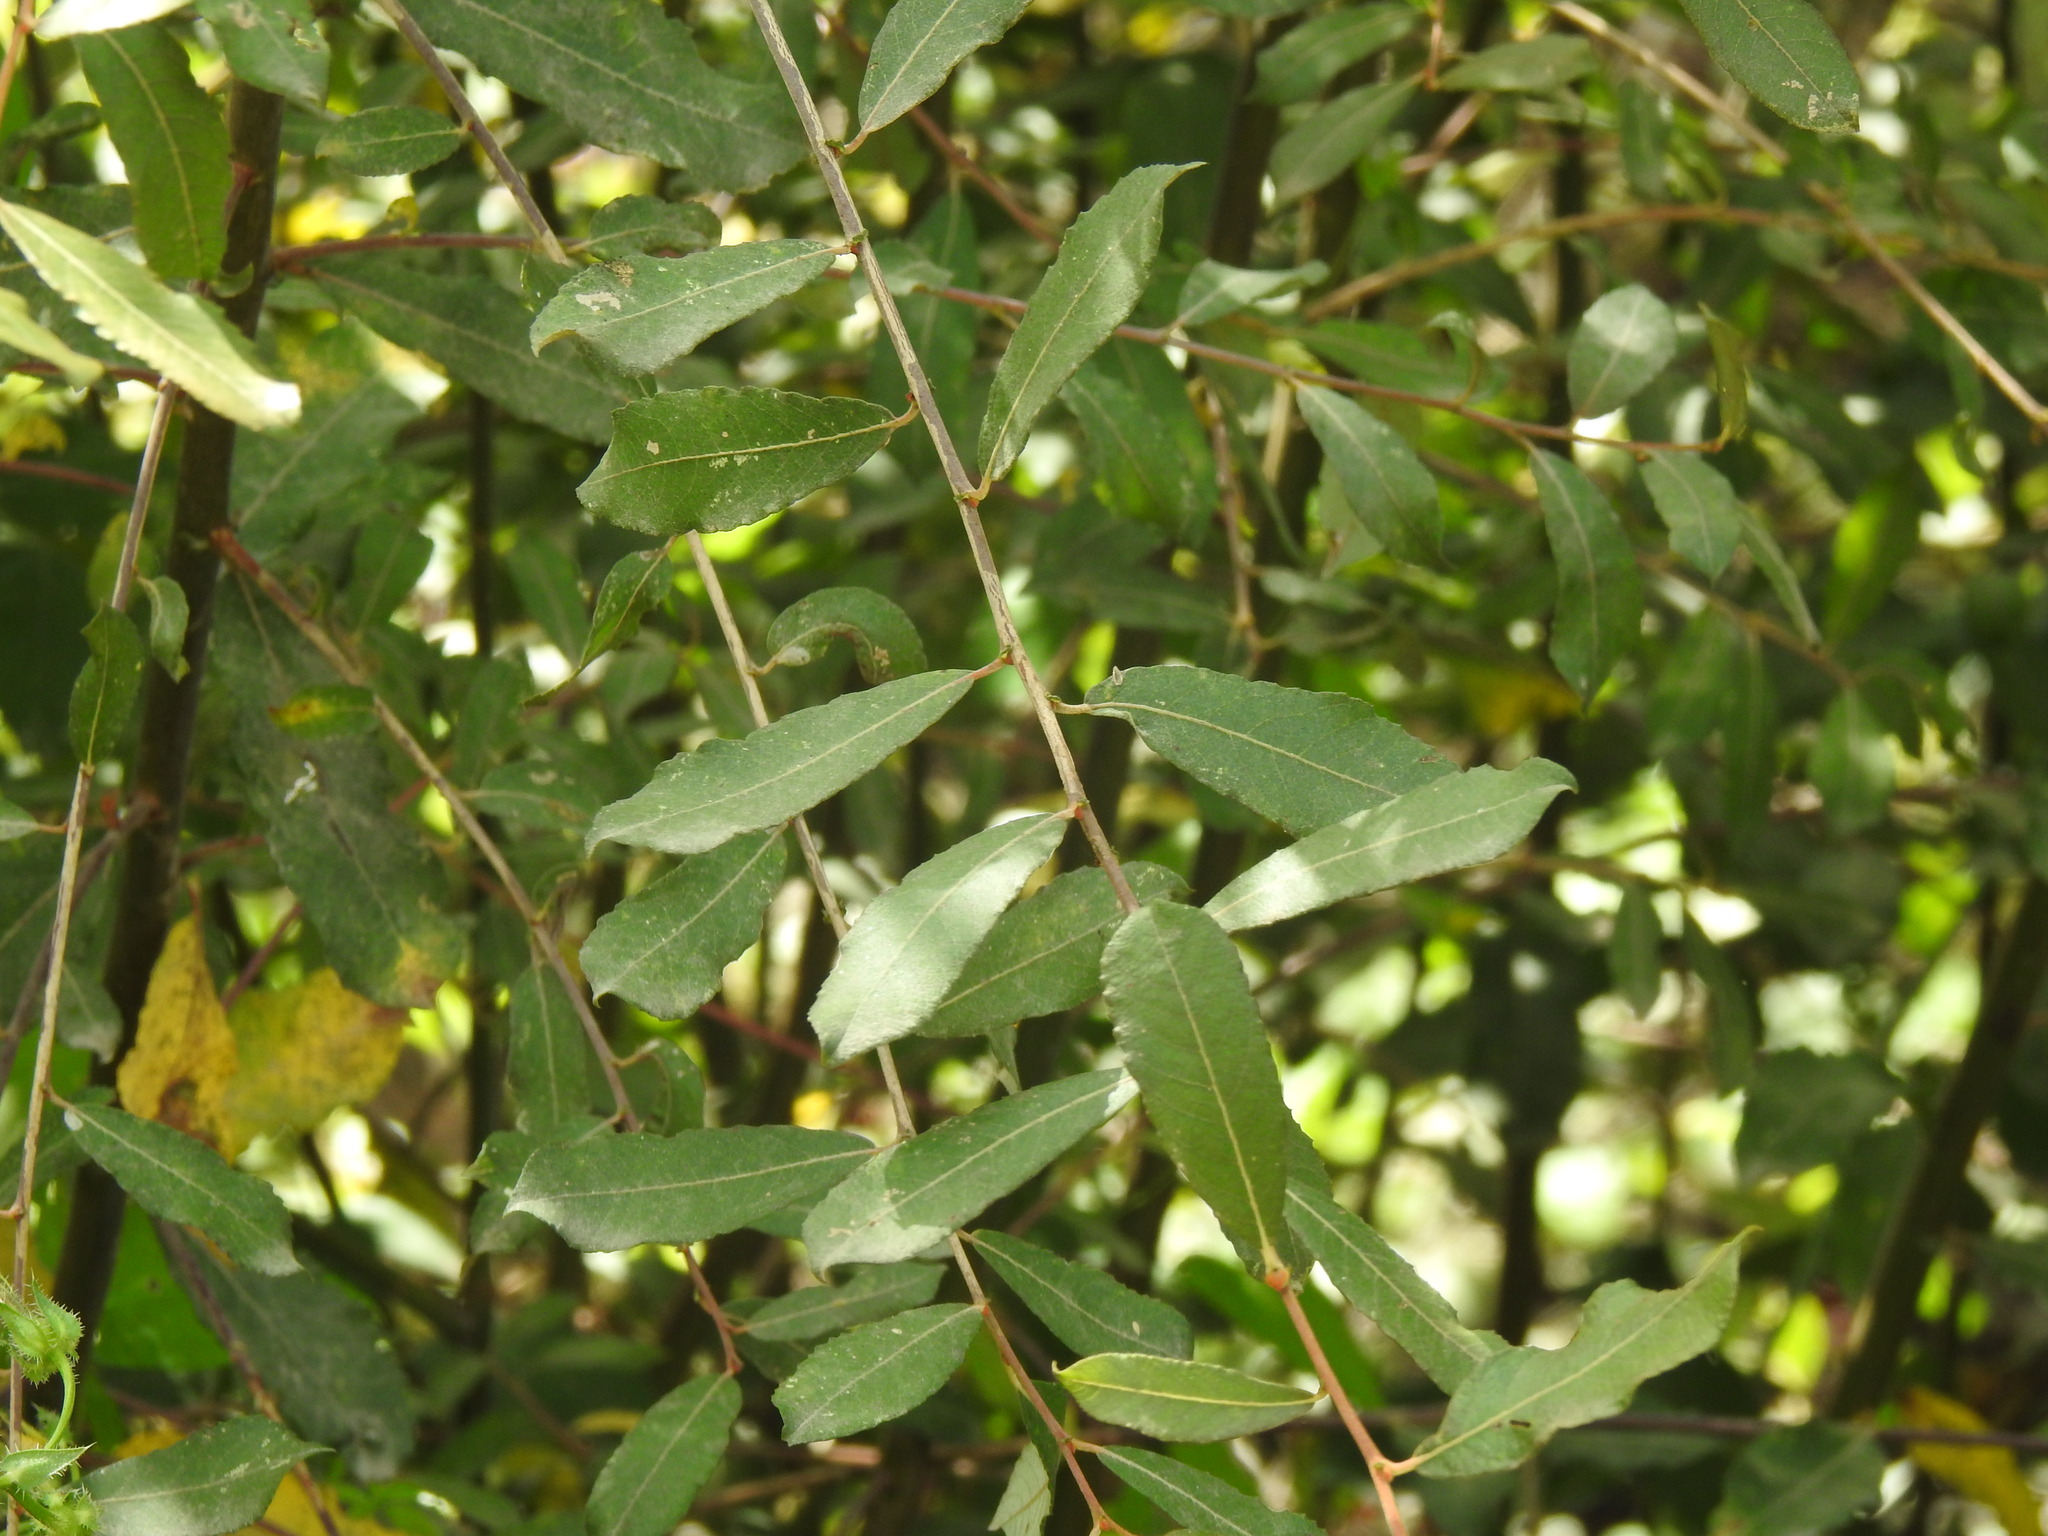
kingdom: Plantae
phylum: Tracheophyta
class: Magnoliopsida
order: Malpighiales
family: Salicaceae
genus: Salix
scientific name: Salix atrocinerea
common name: Rusty willow
